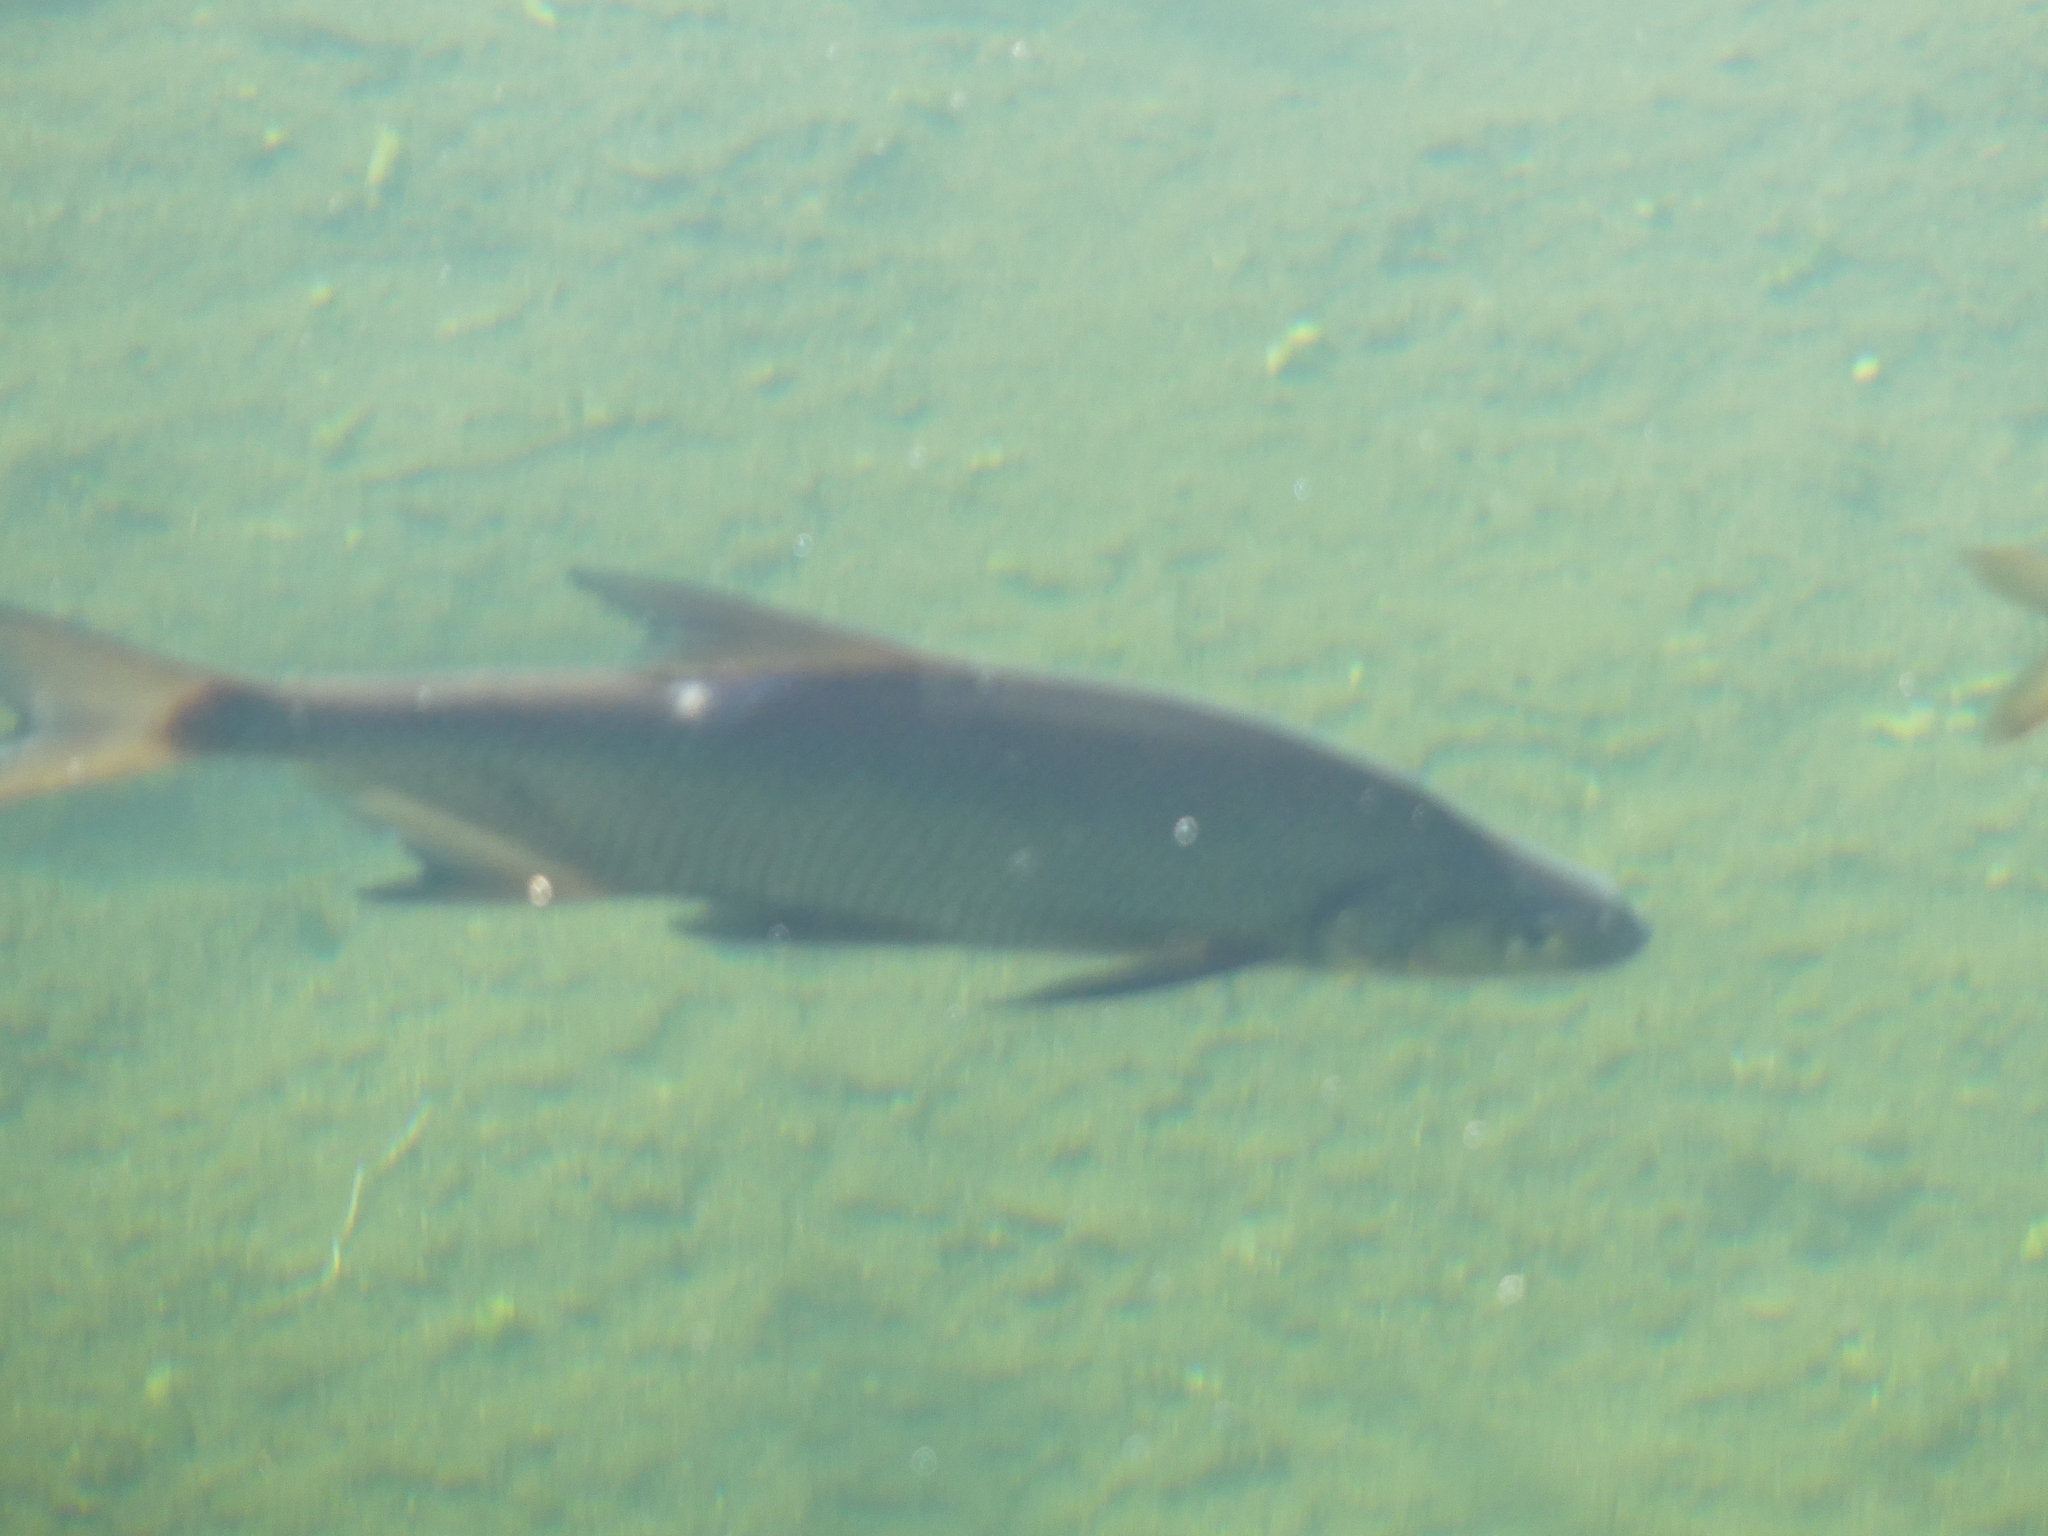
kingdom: Animalia
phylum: Chordata
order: Cypriniformes
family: Cyprinidae
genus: Abramis
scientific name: Abramis brama
